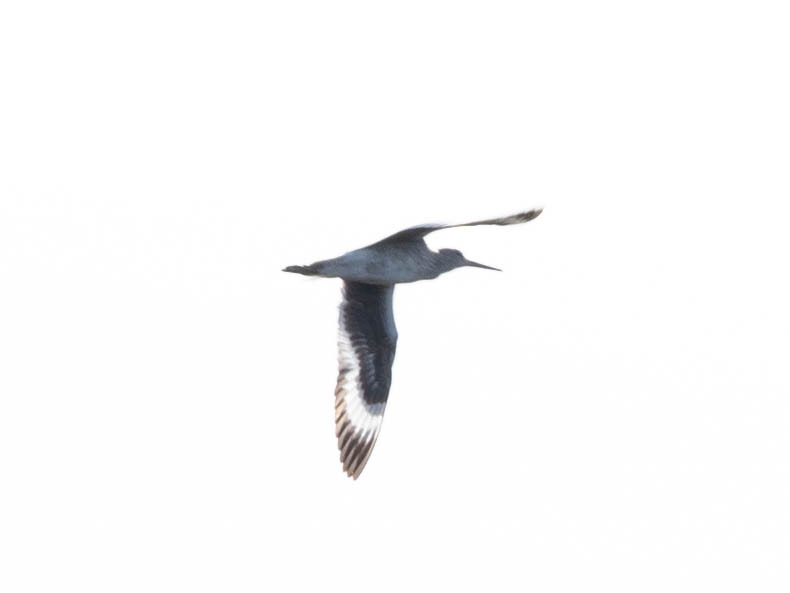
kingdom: Animalia
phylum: Chordata
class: Aves
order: Charadriiformes
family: Scolopacidae
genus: Tringa
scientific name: Tringa semipalmata
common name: Willet
